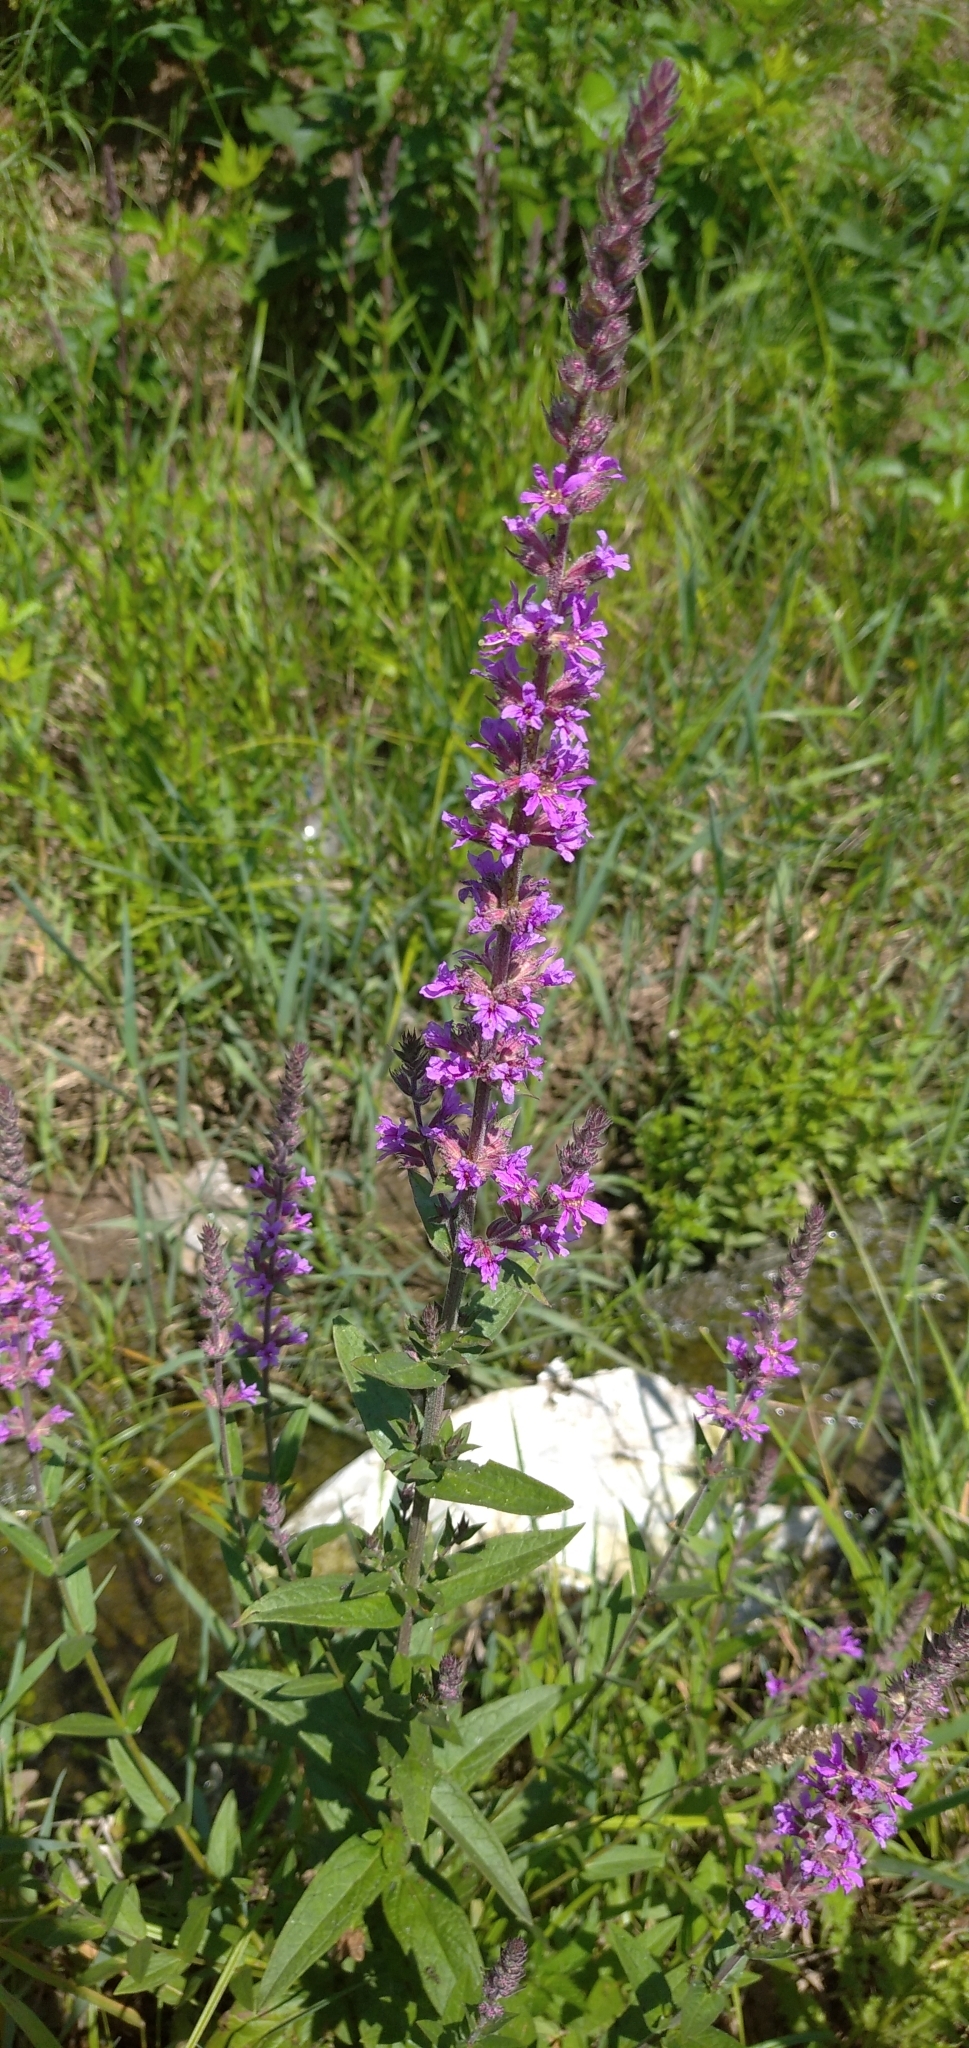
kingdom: Plantae
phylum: Tracheophyta
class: Magnoliopsida
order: Myrtales
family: Lythraceae
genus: Lythrum
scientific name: Lythrum salicaria
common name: Purple loosestrife
